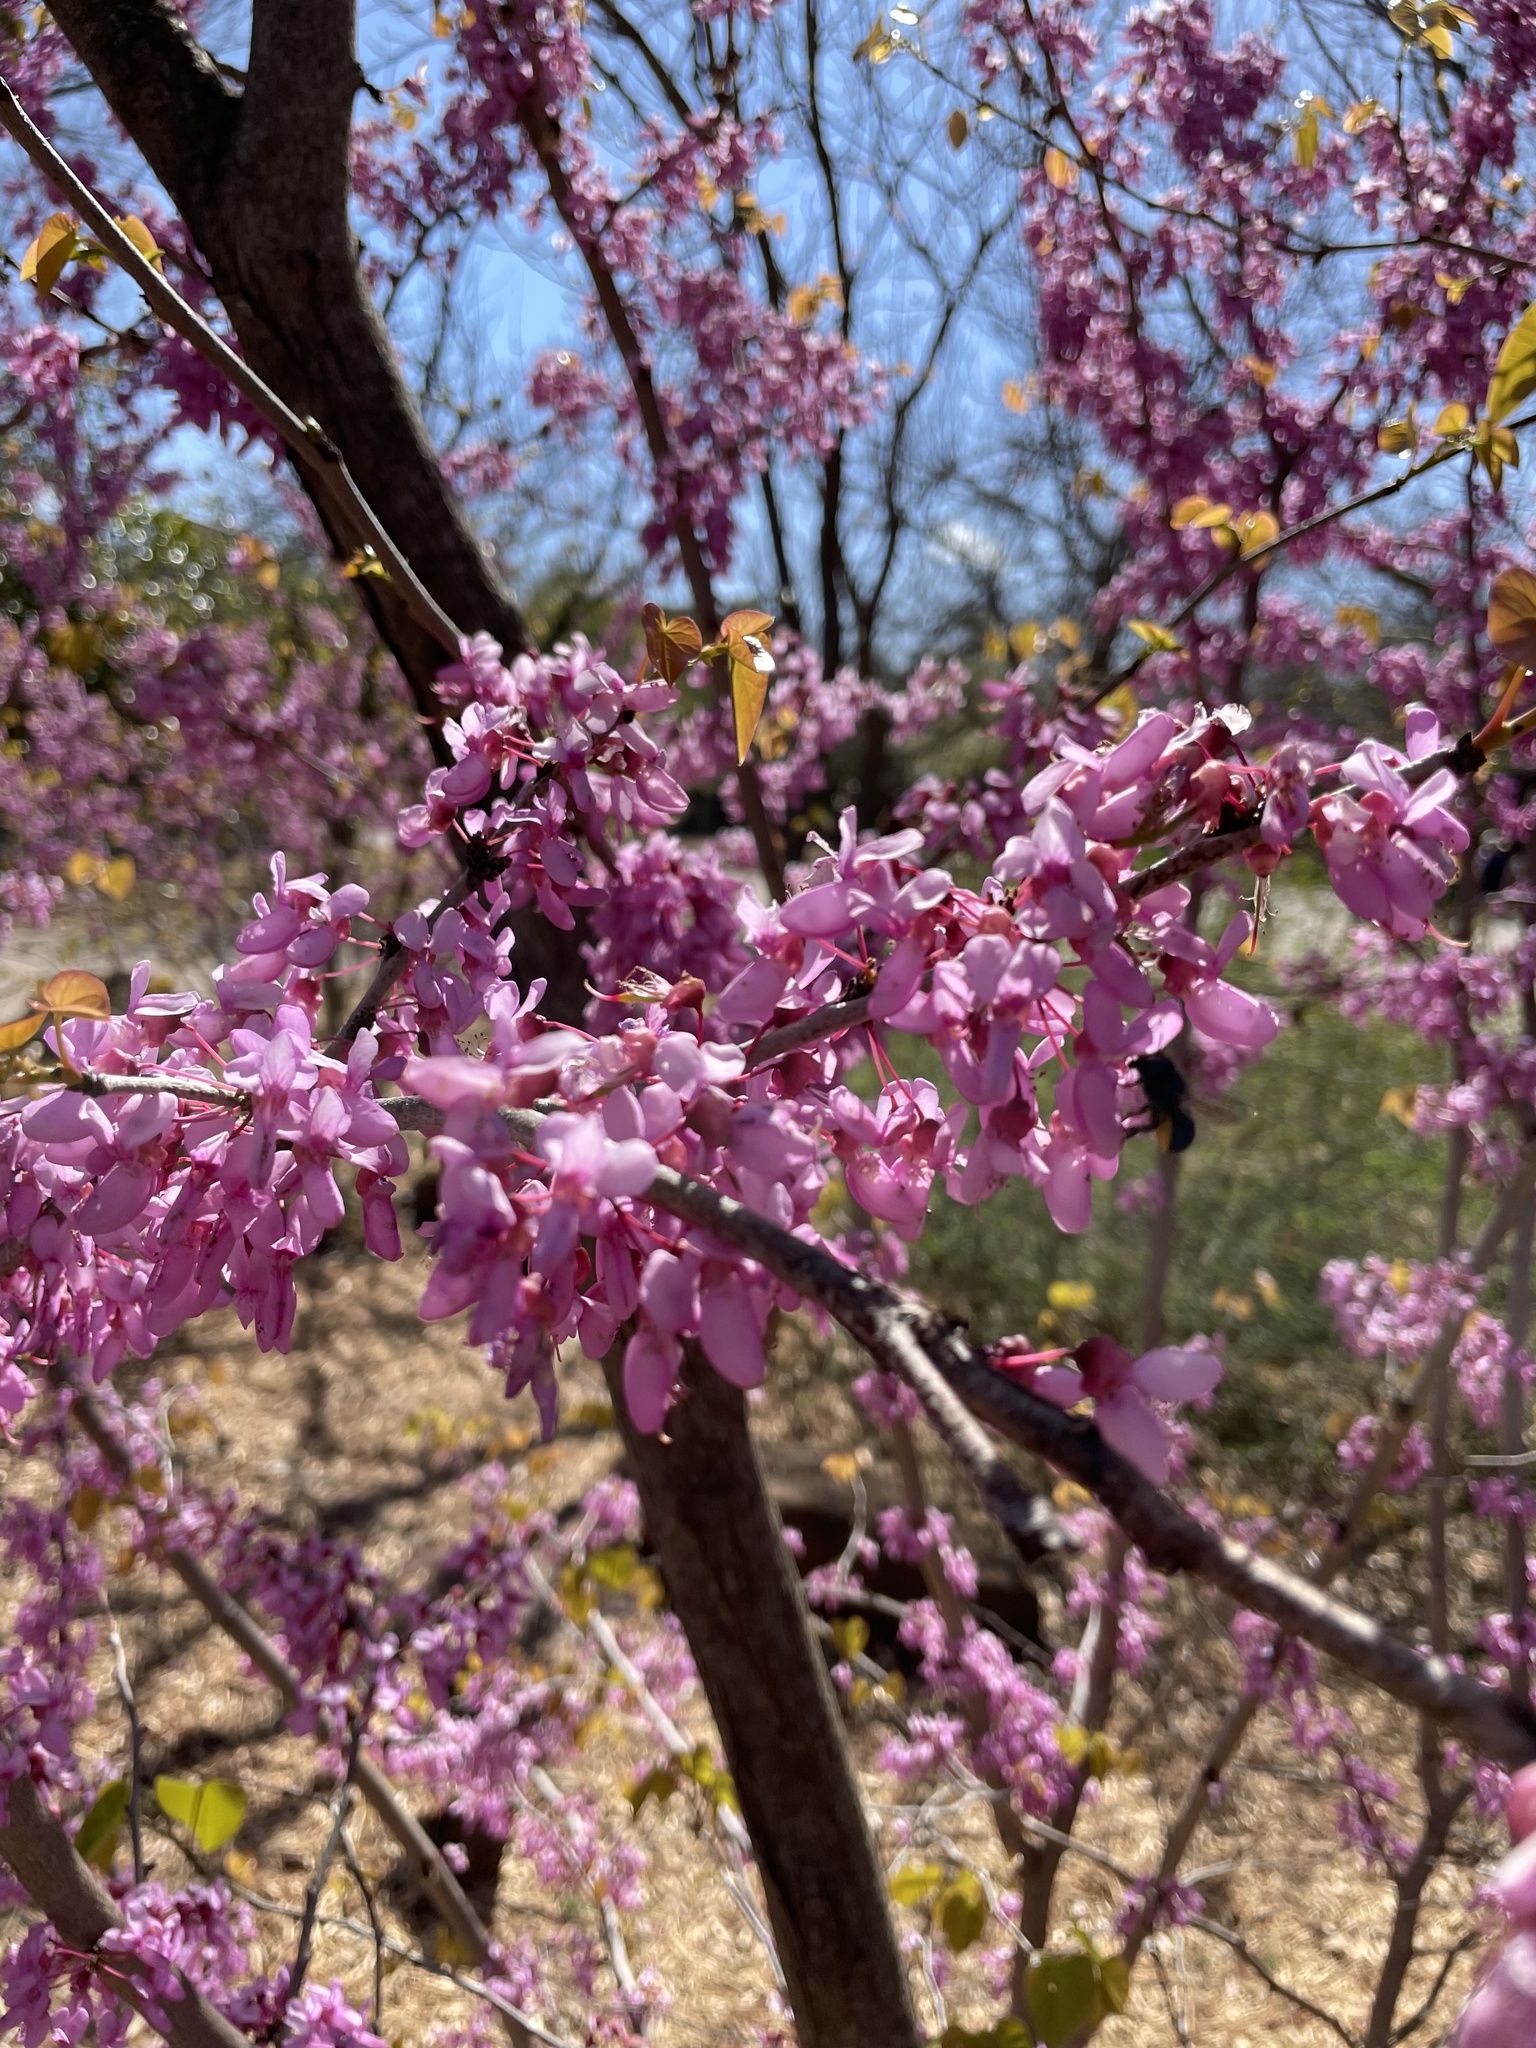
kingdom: Animalia
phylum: Arthropoda
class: Insecta
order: Hymenoptera
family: Megachilidae
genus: Osmia
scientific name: Osmia ribifloris
